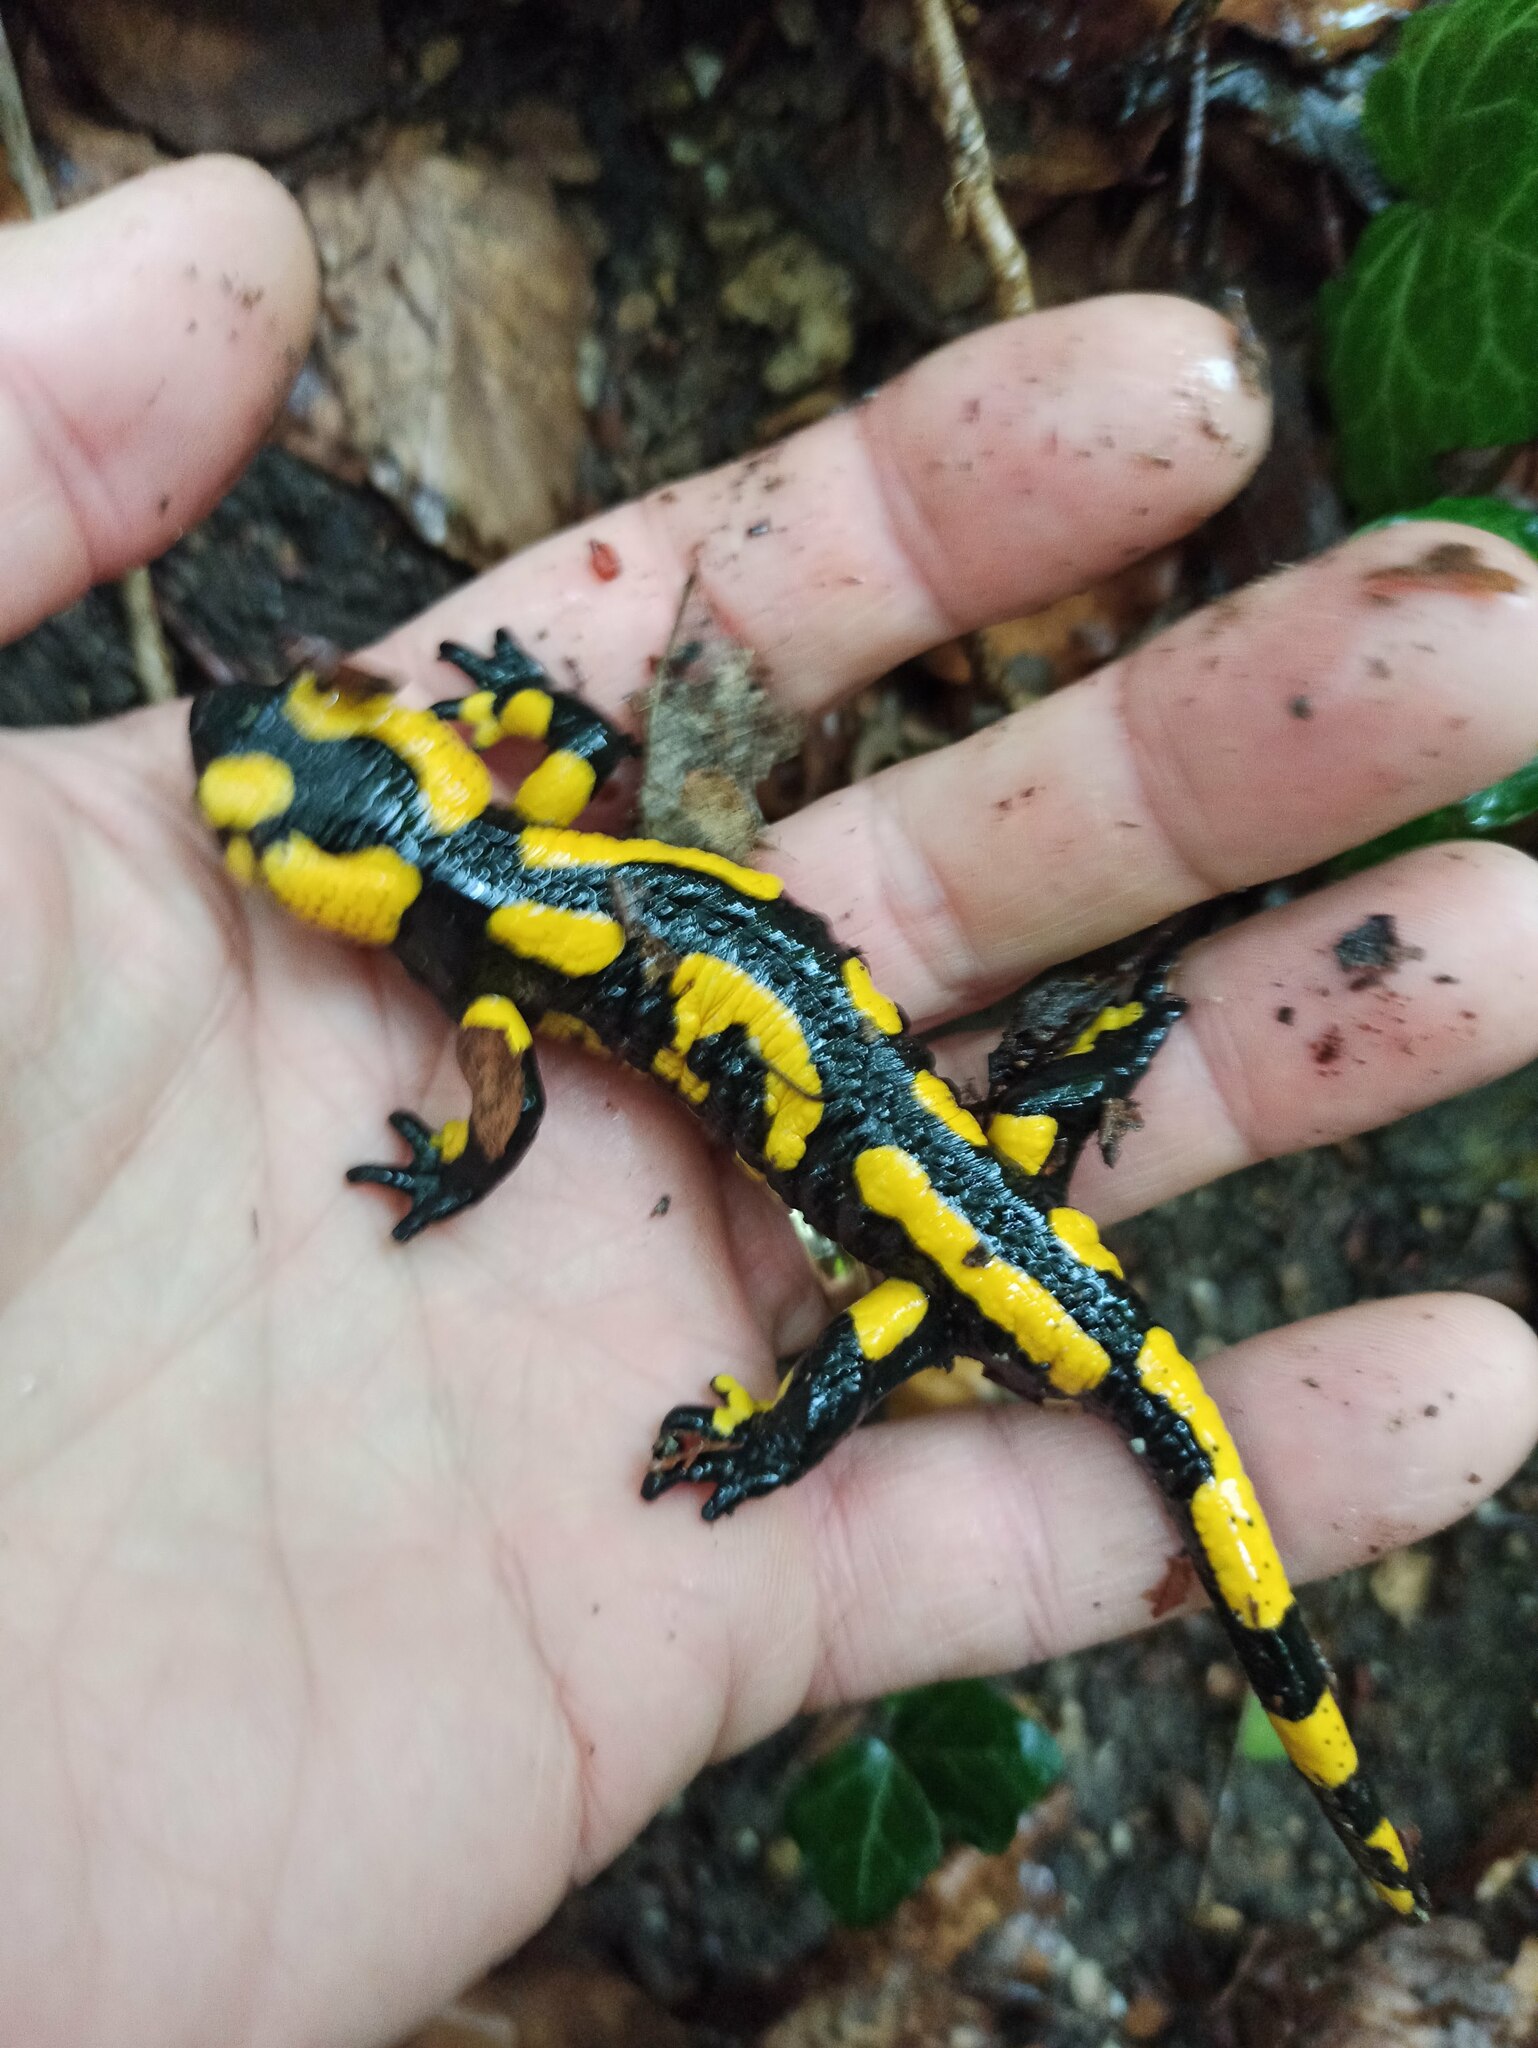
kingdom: Animalia
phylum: Chordata
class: Amphibia
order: Caudata
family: Salamandridae
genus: Salamandra
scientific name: Salamandra salamandra
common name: Fire salamander
